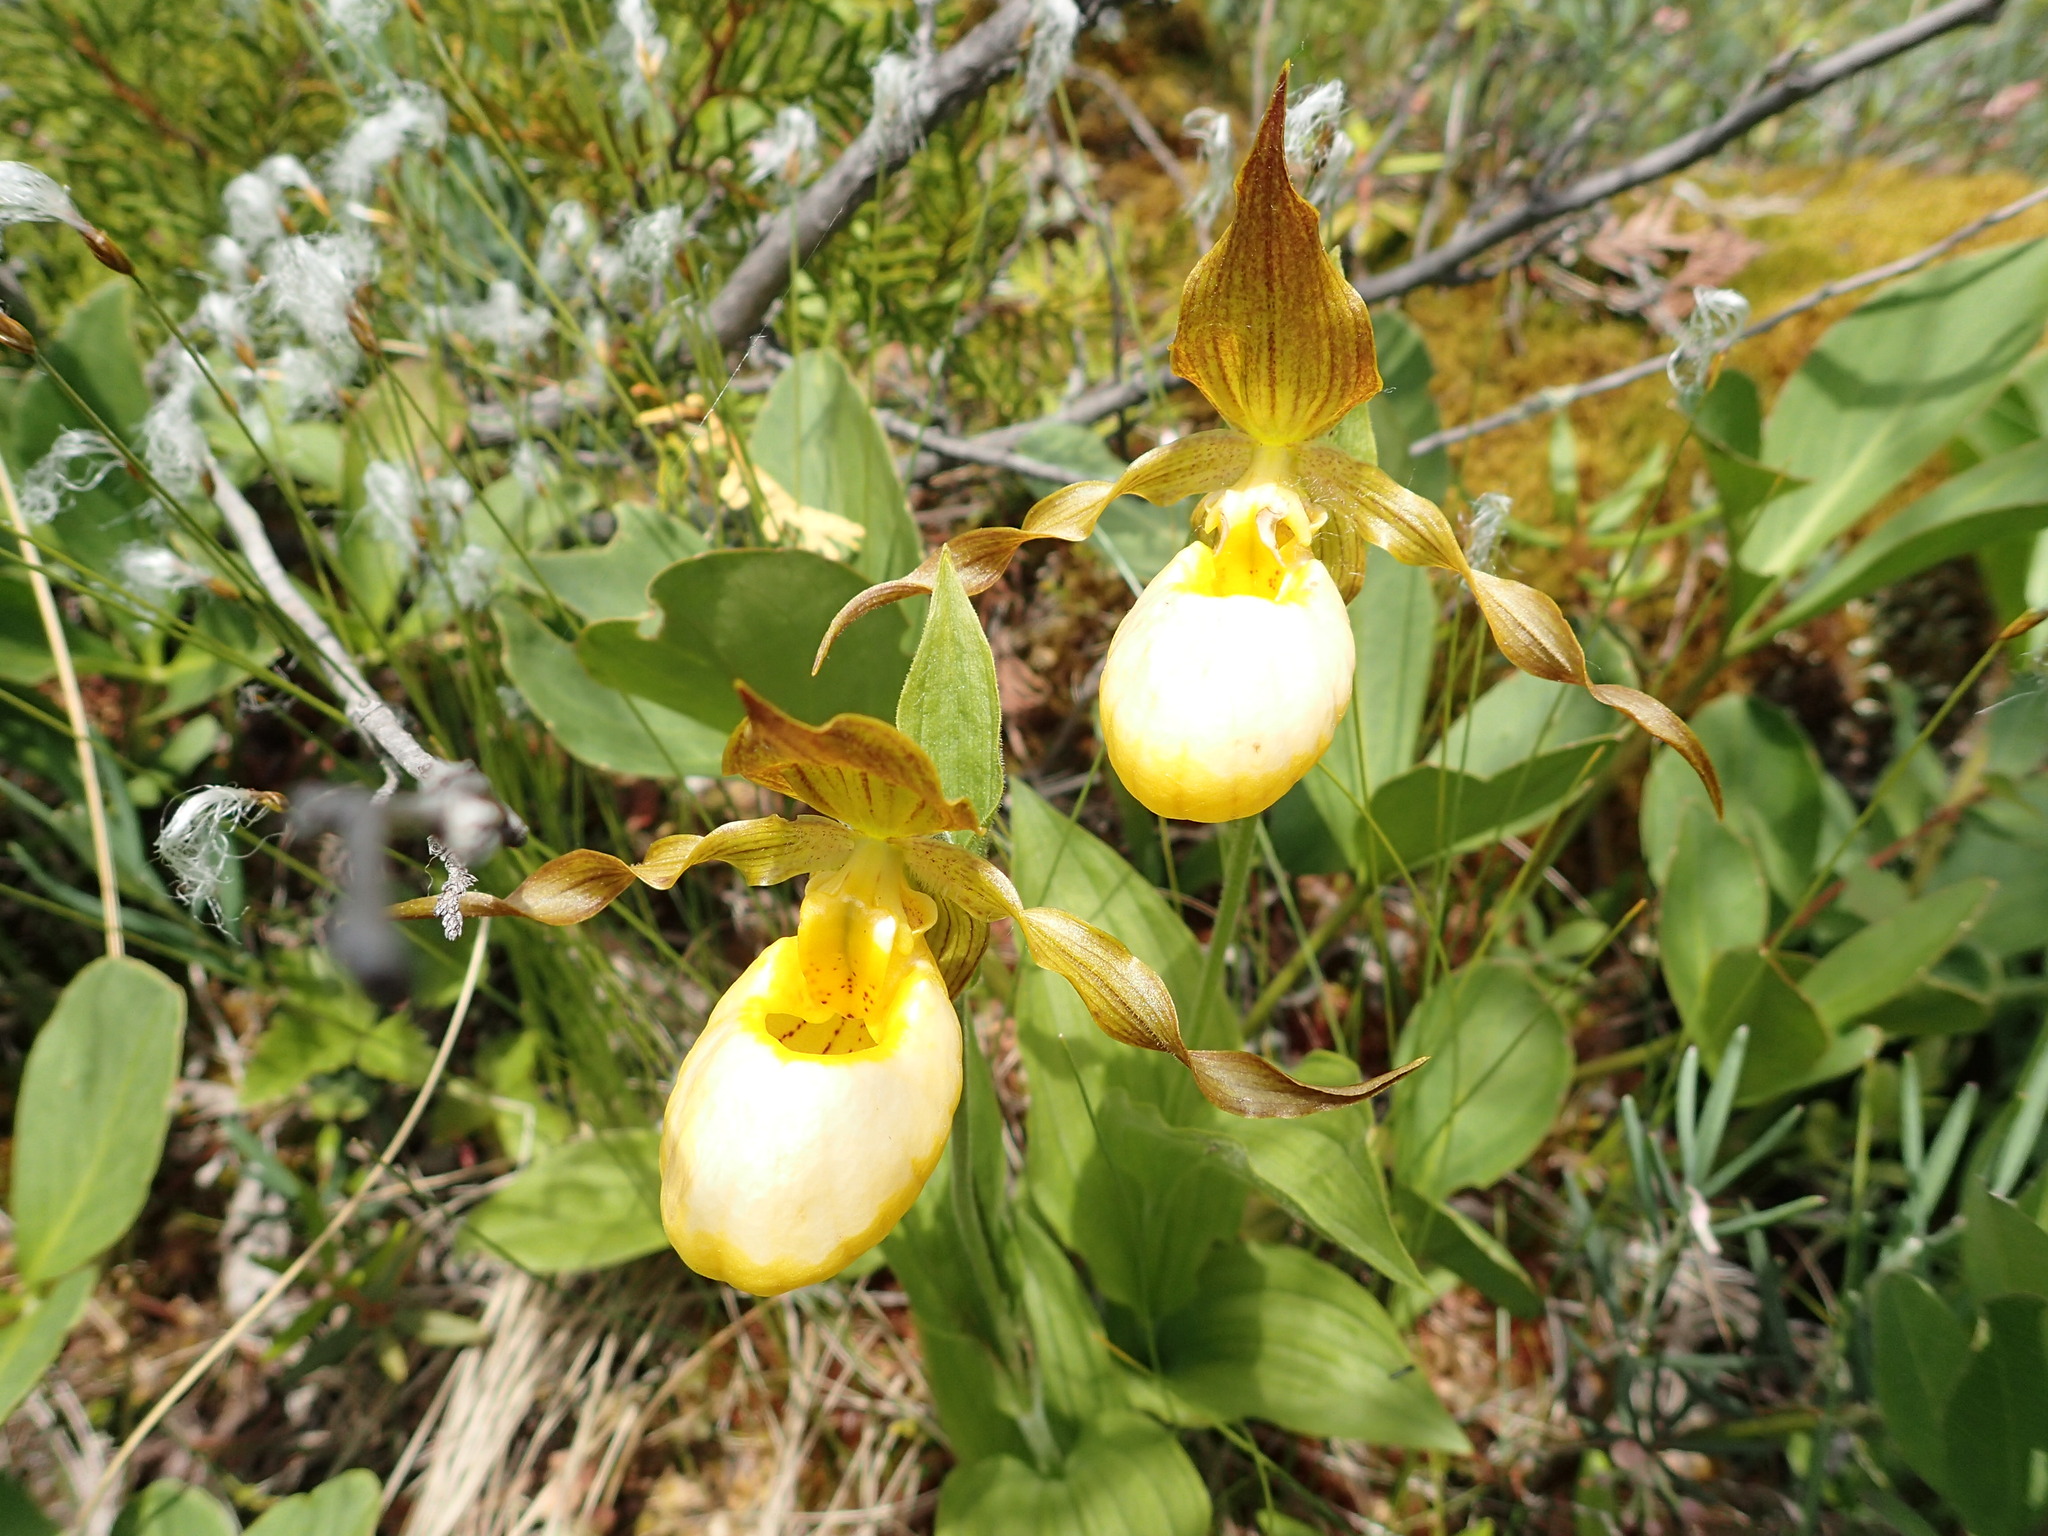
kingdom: Plantae
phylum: Tracheophyta
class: Liliopsida
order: Asparagales
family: Orchidaceae
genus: Cypripedium
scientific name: Cypripedium parviflorum
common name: American yellow lady's-slipper
